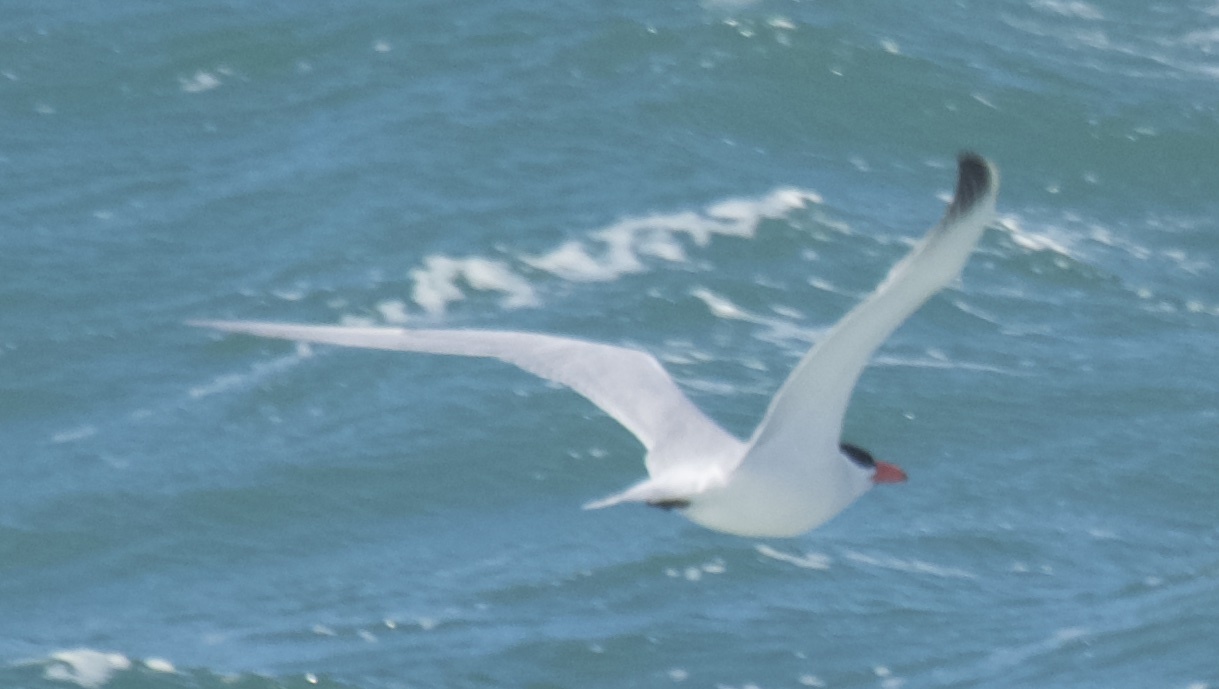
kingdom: Animalia
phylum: Chordata
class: Aves
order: Charadriiformes
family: Laridae
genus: Hydroprogne
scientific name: Hydroprogne caspia
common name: Caspian tern
